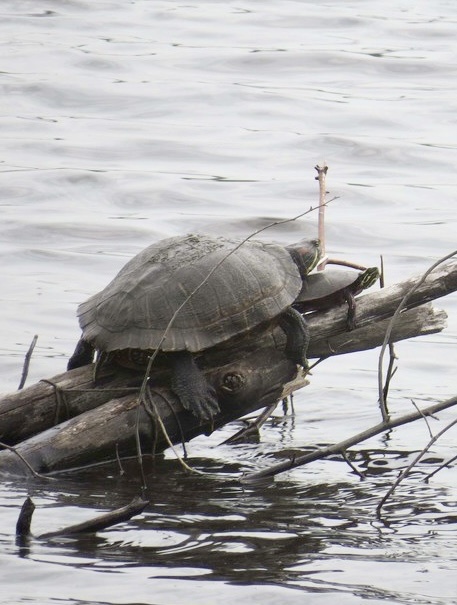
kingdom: Animalia
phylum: Chordata
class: Testudines
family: Emydidae
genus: Trachemys
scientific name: Trachemys scripta
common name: Slider
